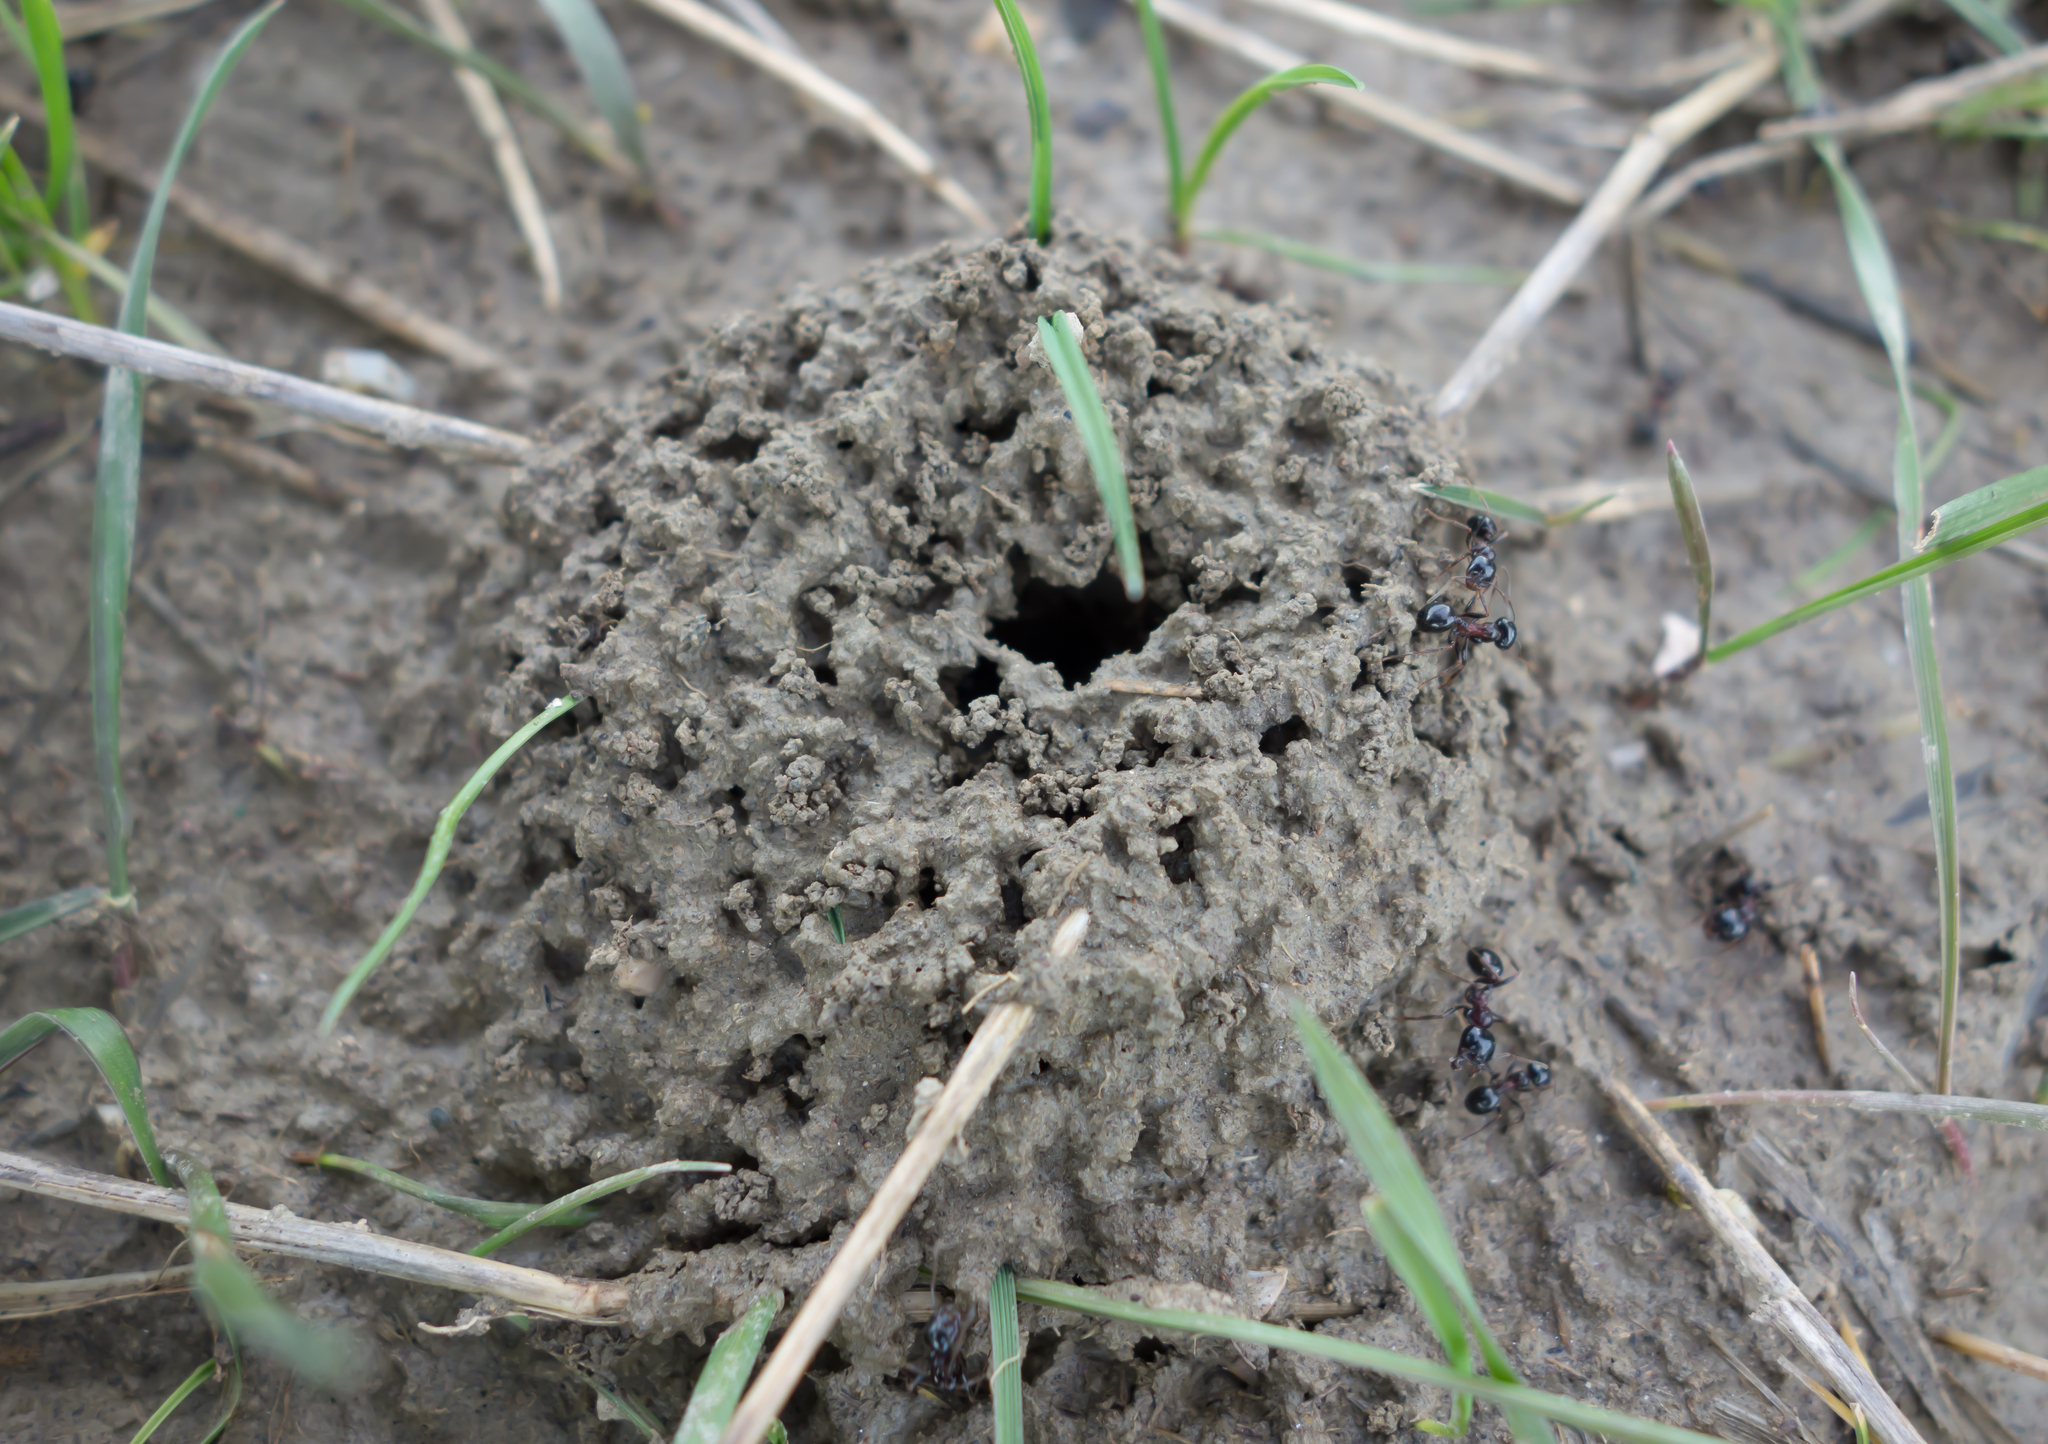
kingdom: Animalia
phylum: Arthropoda
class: Insecta
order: Hymenoptera
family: Formicidae
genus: Messor
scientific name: Messor wasmanni
